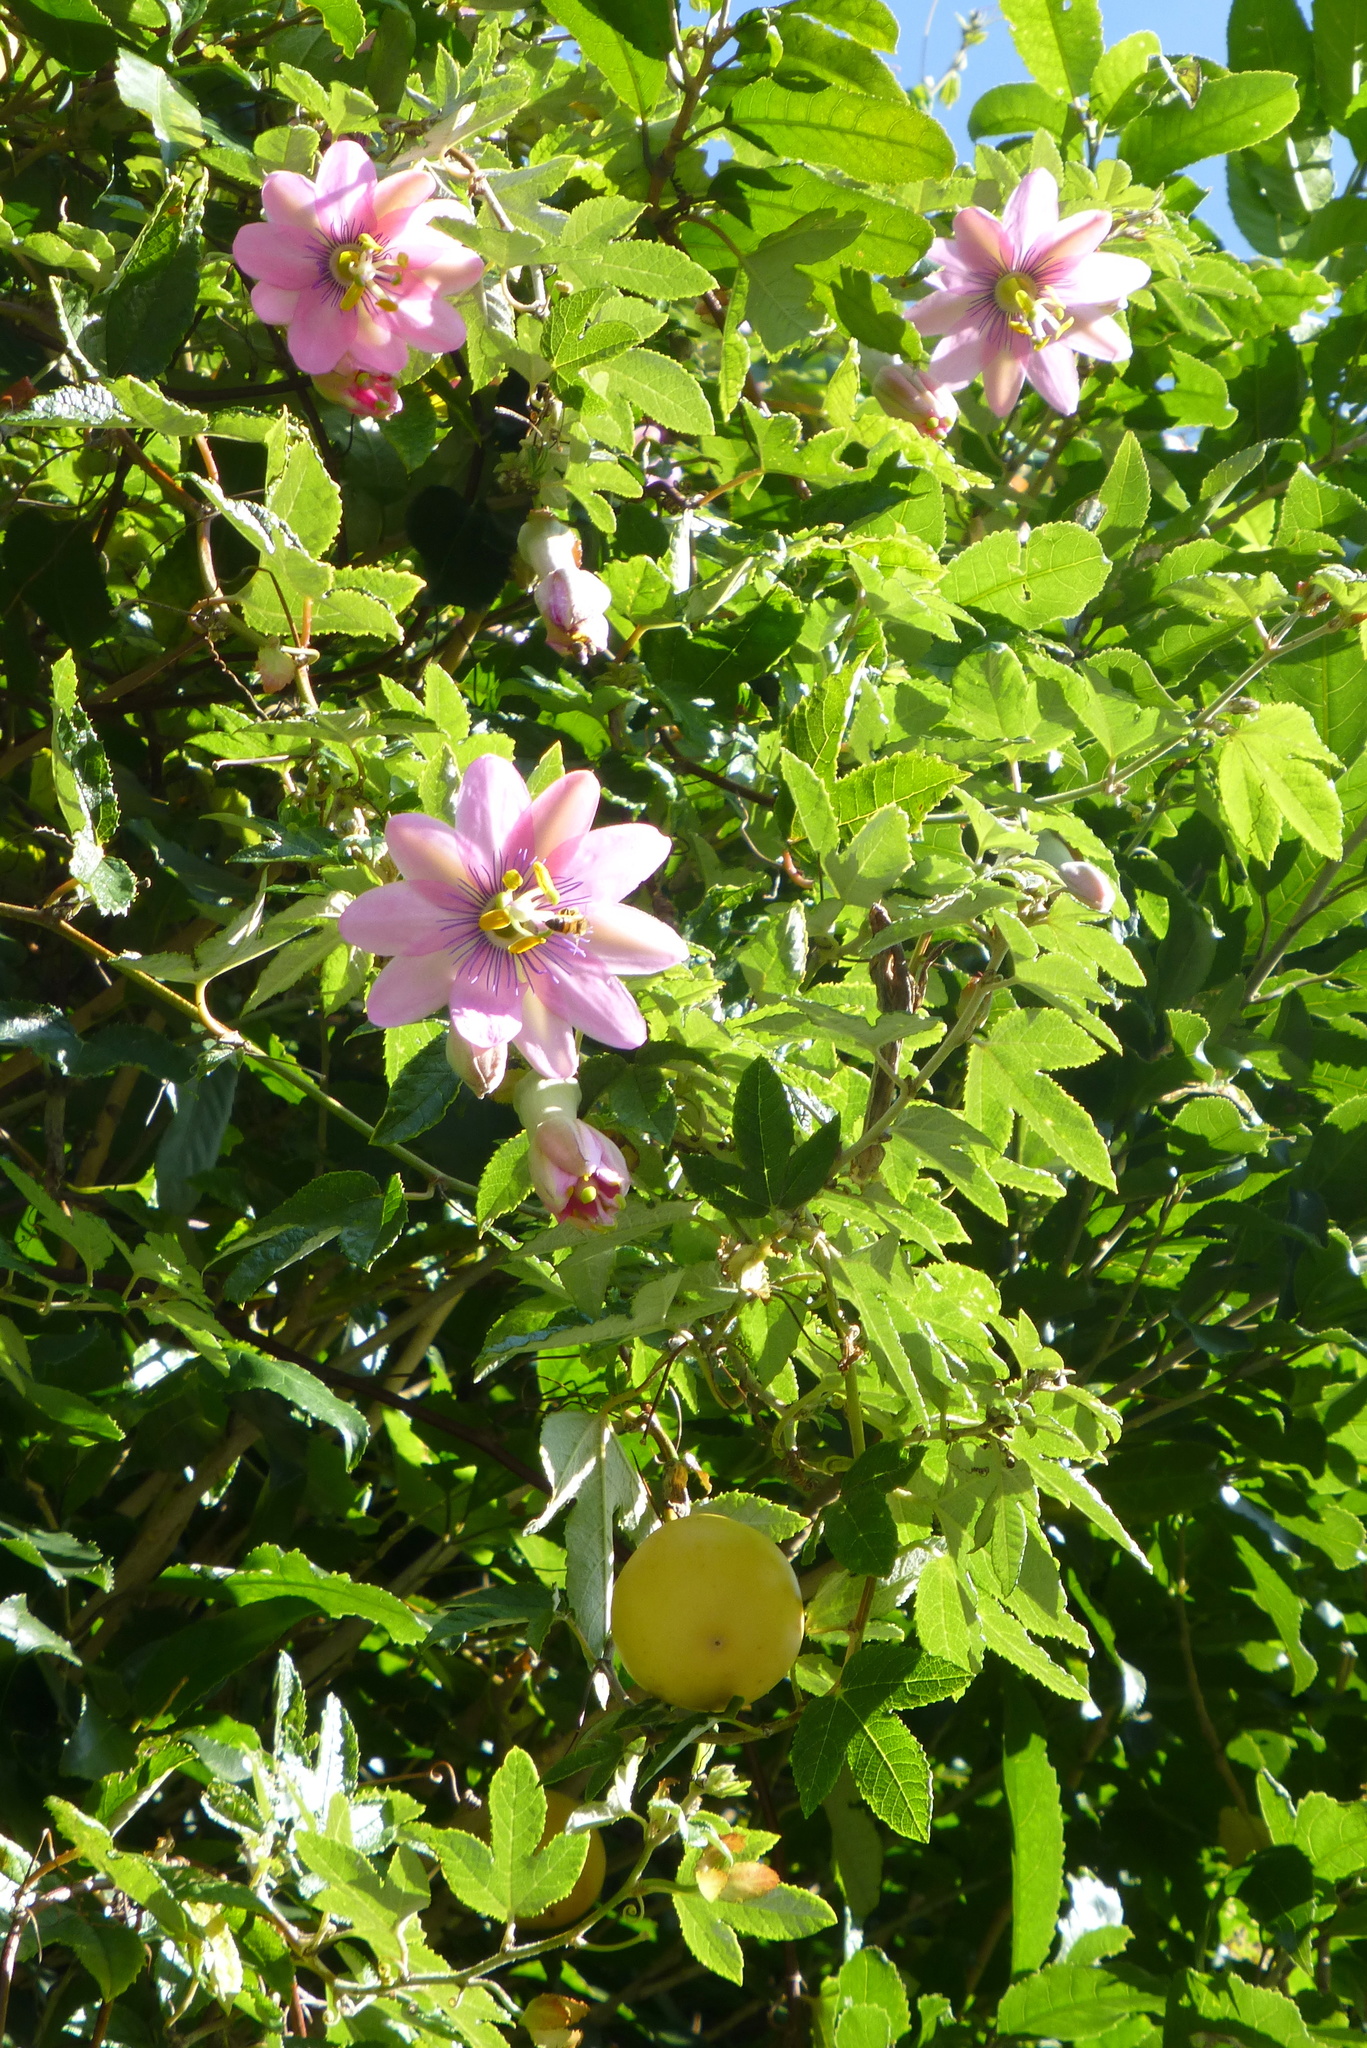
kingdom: Plantae
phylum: Tracheophyta
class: Magnoliopsida
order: Malpighiales
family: Passifloraceae
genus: Passiflora
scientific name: Passiflora pinnatistipula
